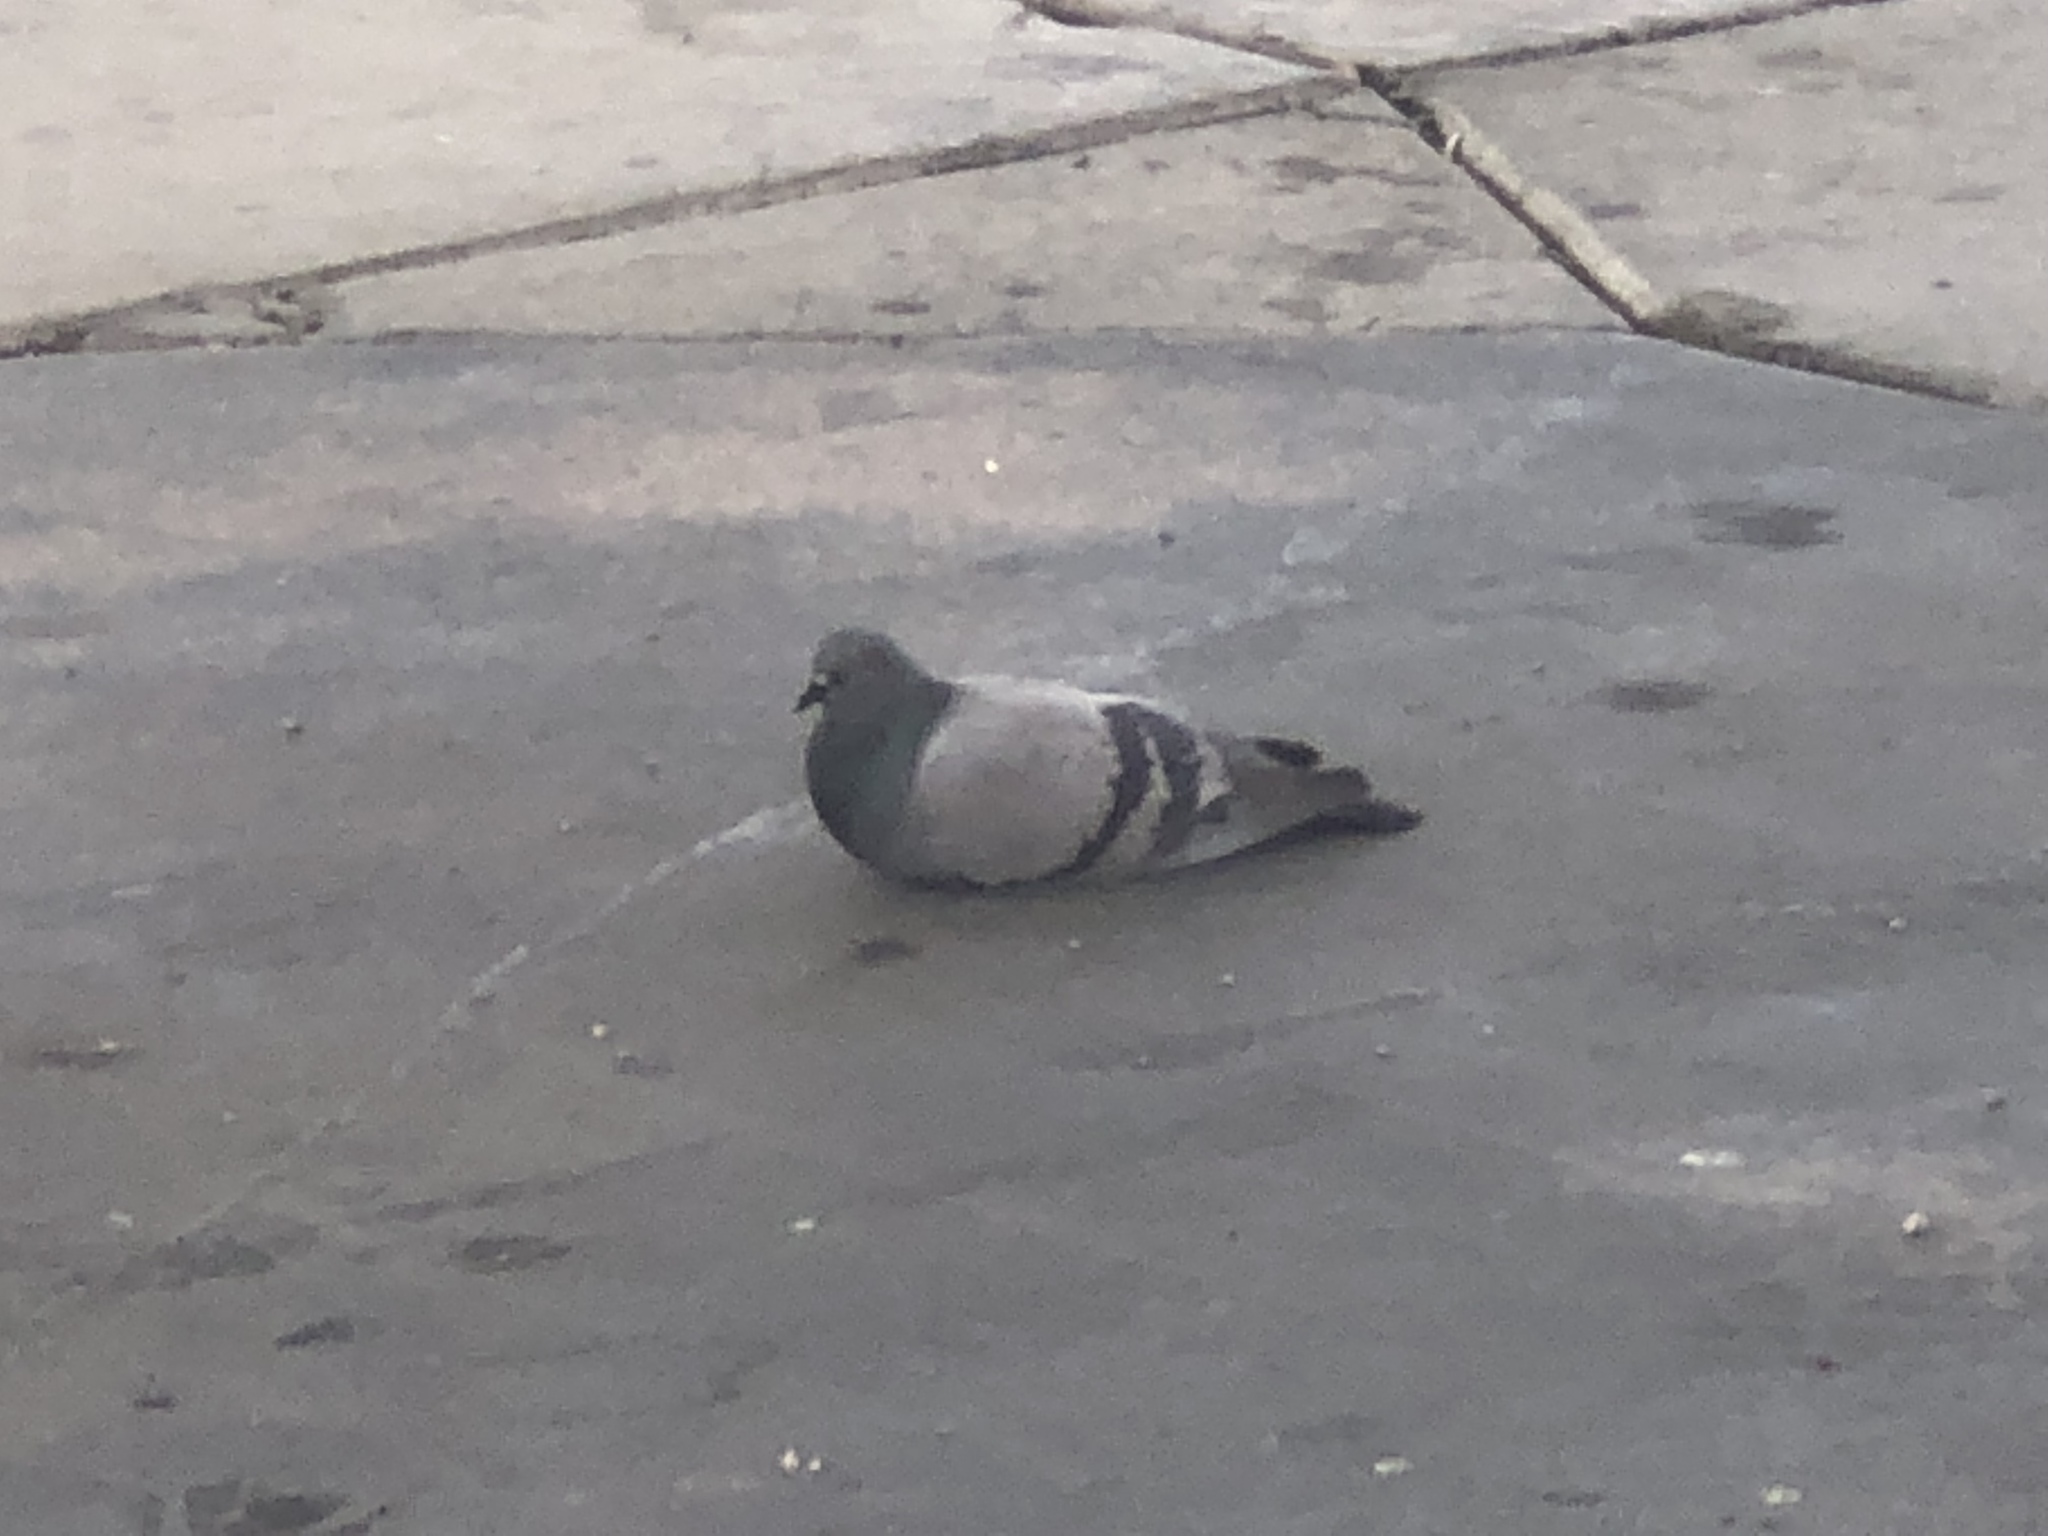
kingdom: Animalia
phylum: Chordata
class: Aves
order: Columbiformes
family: Columbidae
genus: Columba
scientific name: Columba livia
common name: Rock pigeon
